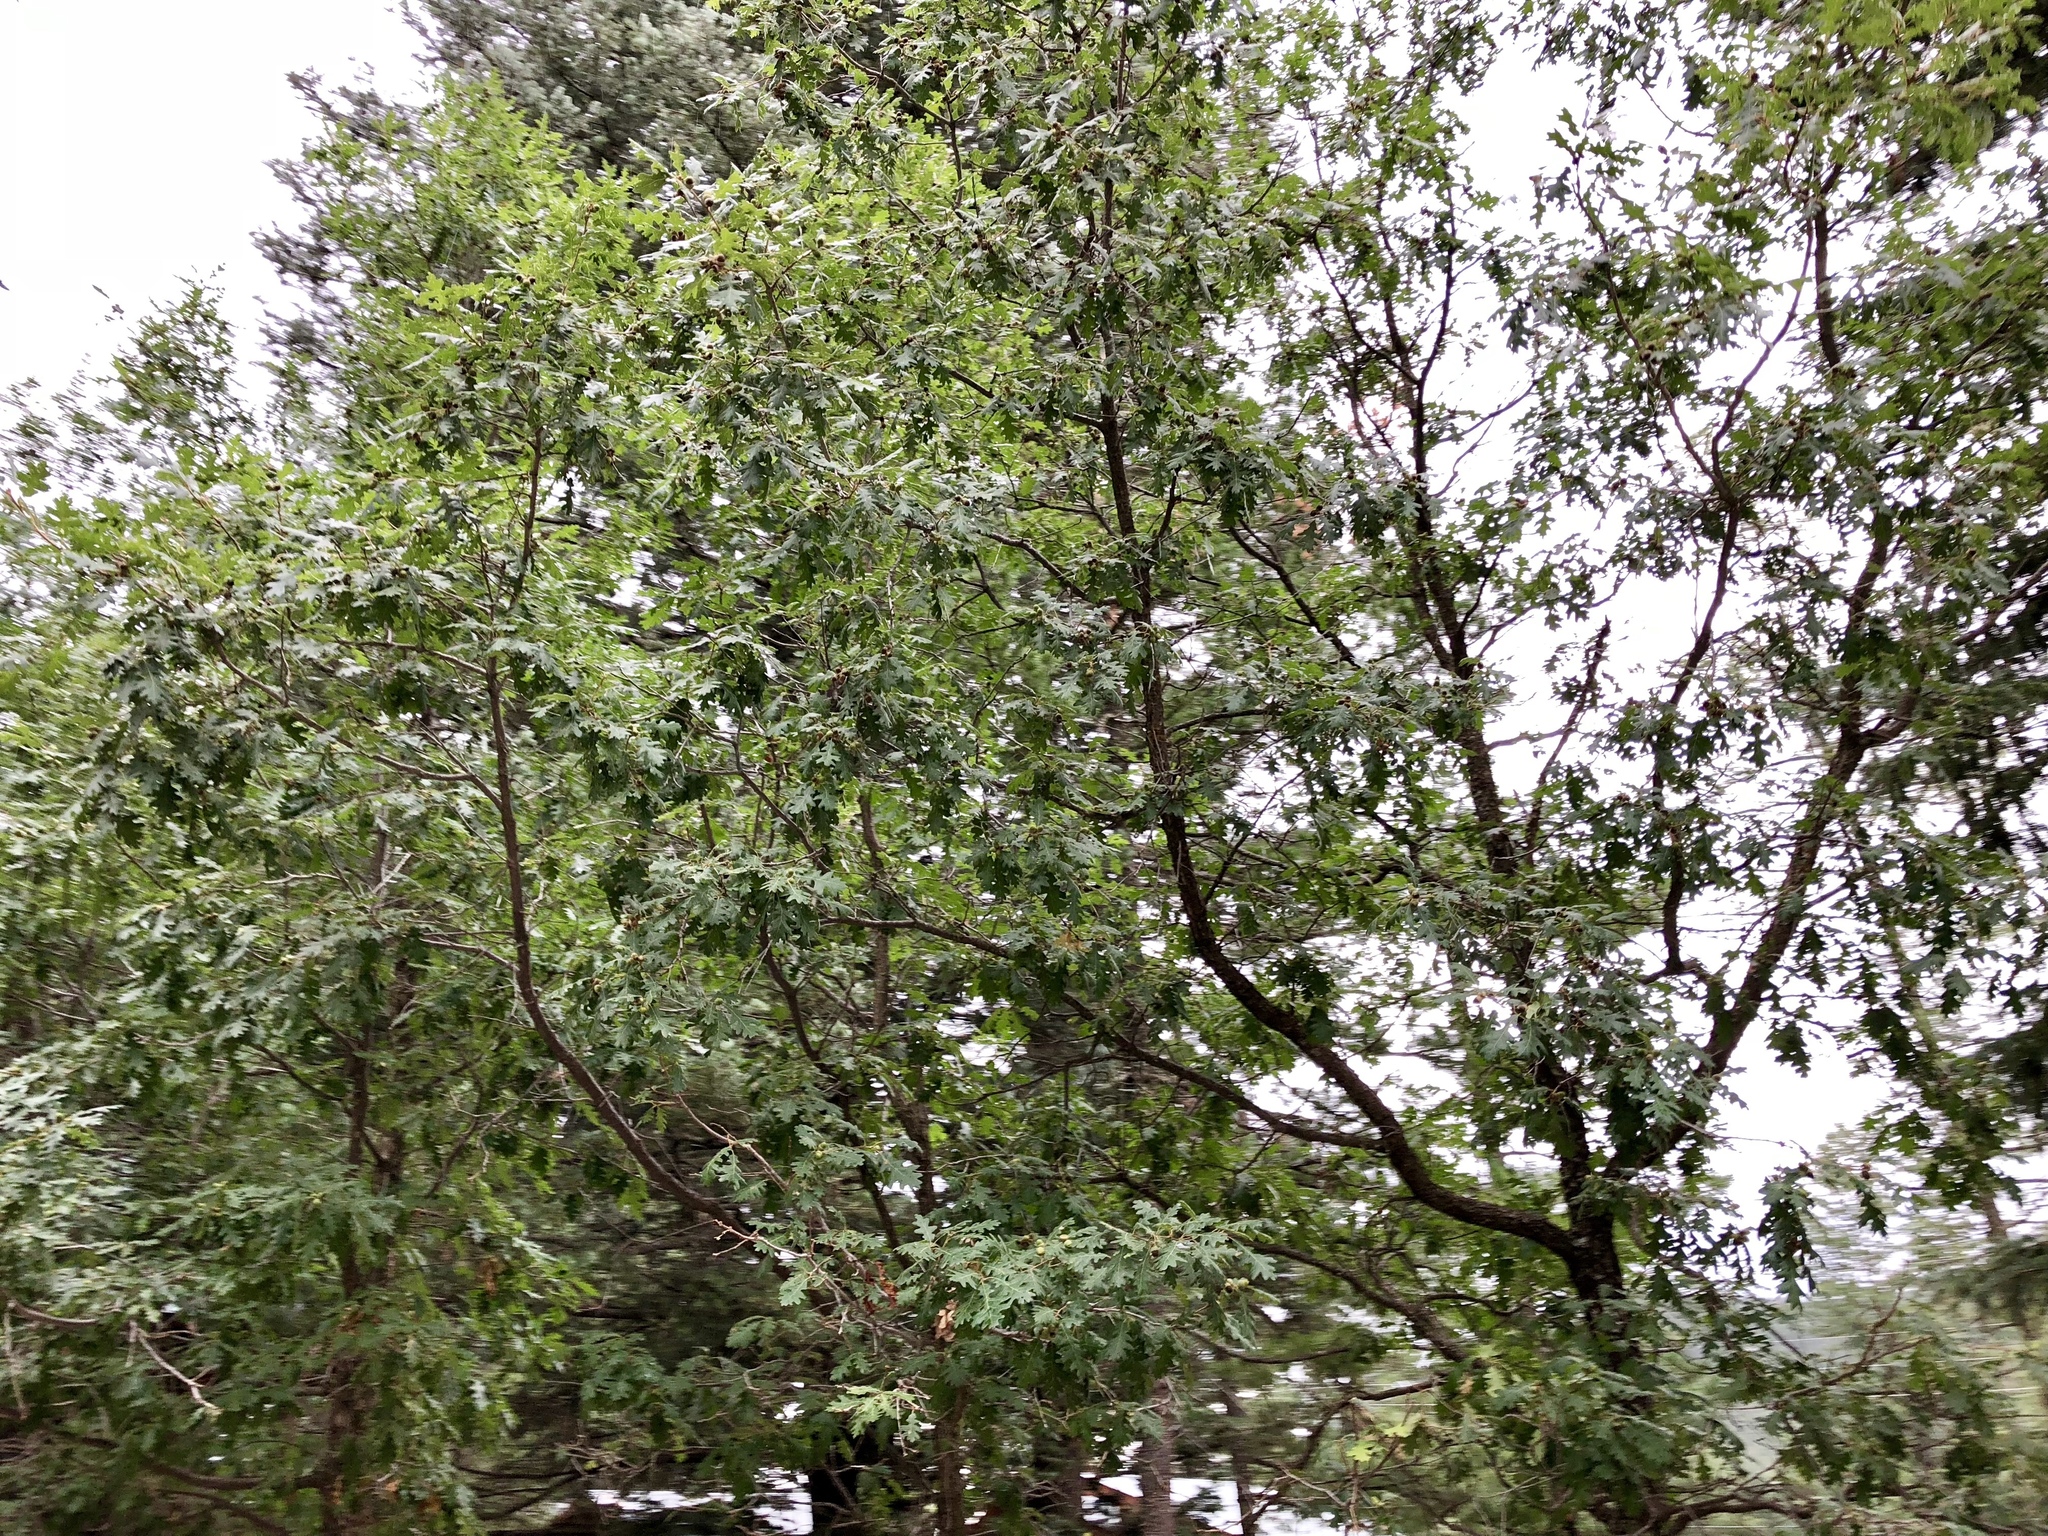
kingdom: Plantae
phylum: Tracheophyta
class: Magnoliopsida
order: Fagales
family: Fagaceae
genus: Quercus
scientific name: Quercus gambelii
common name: Gambel oak
